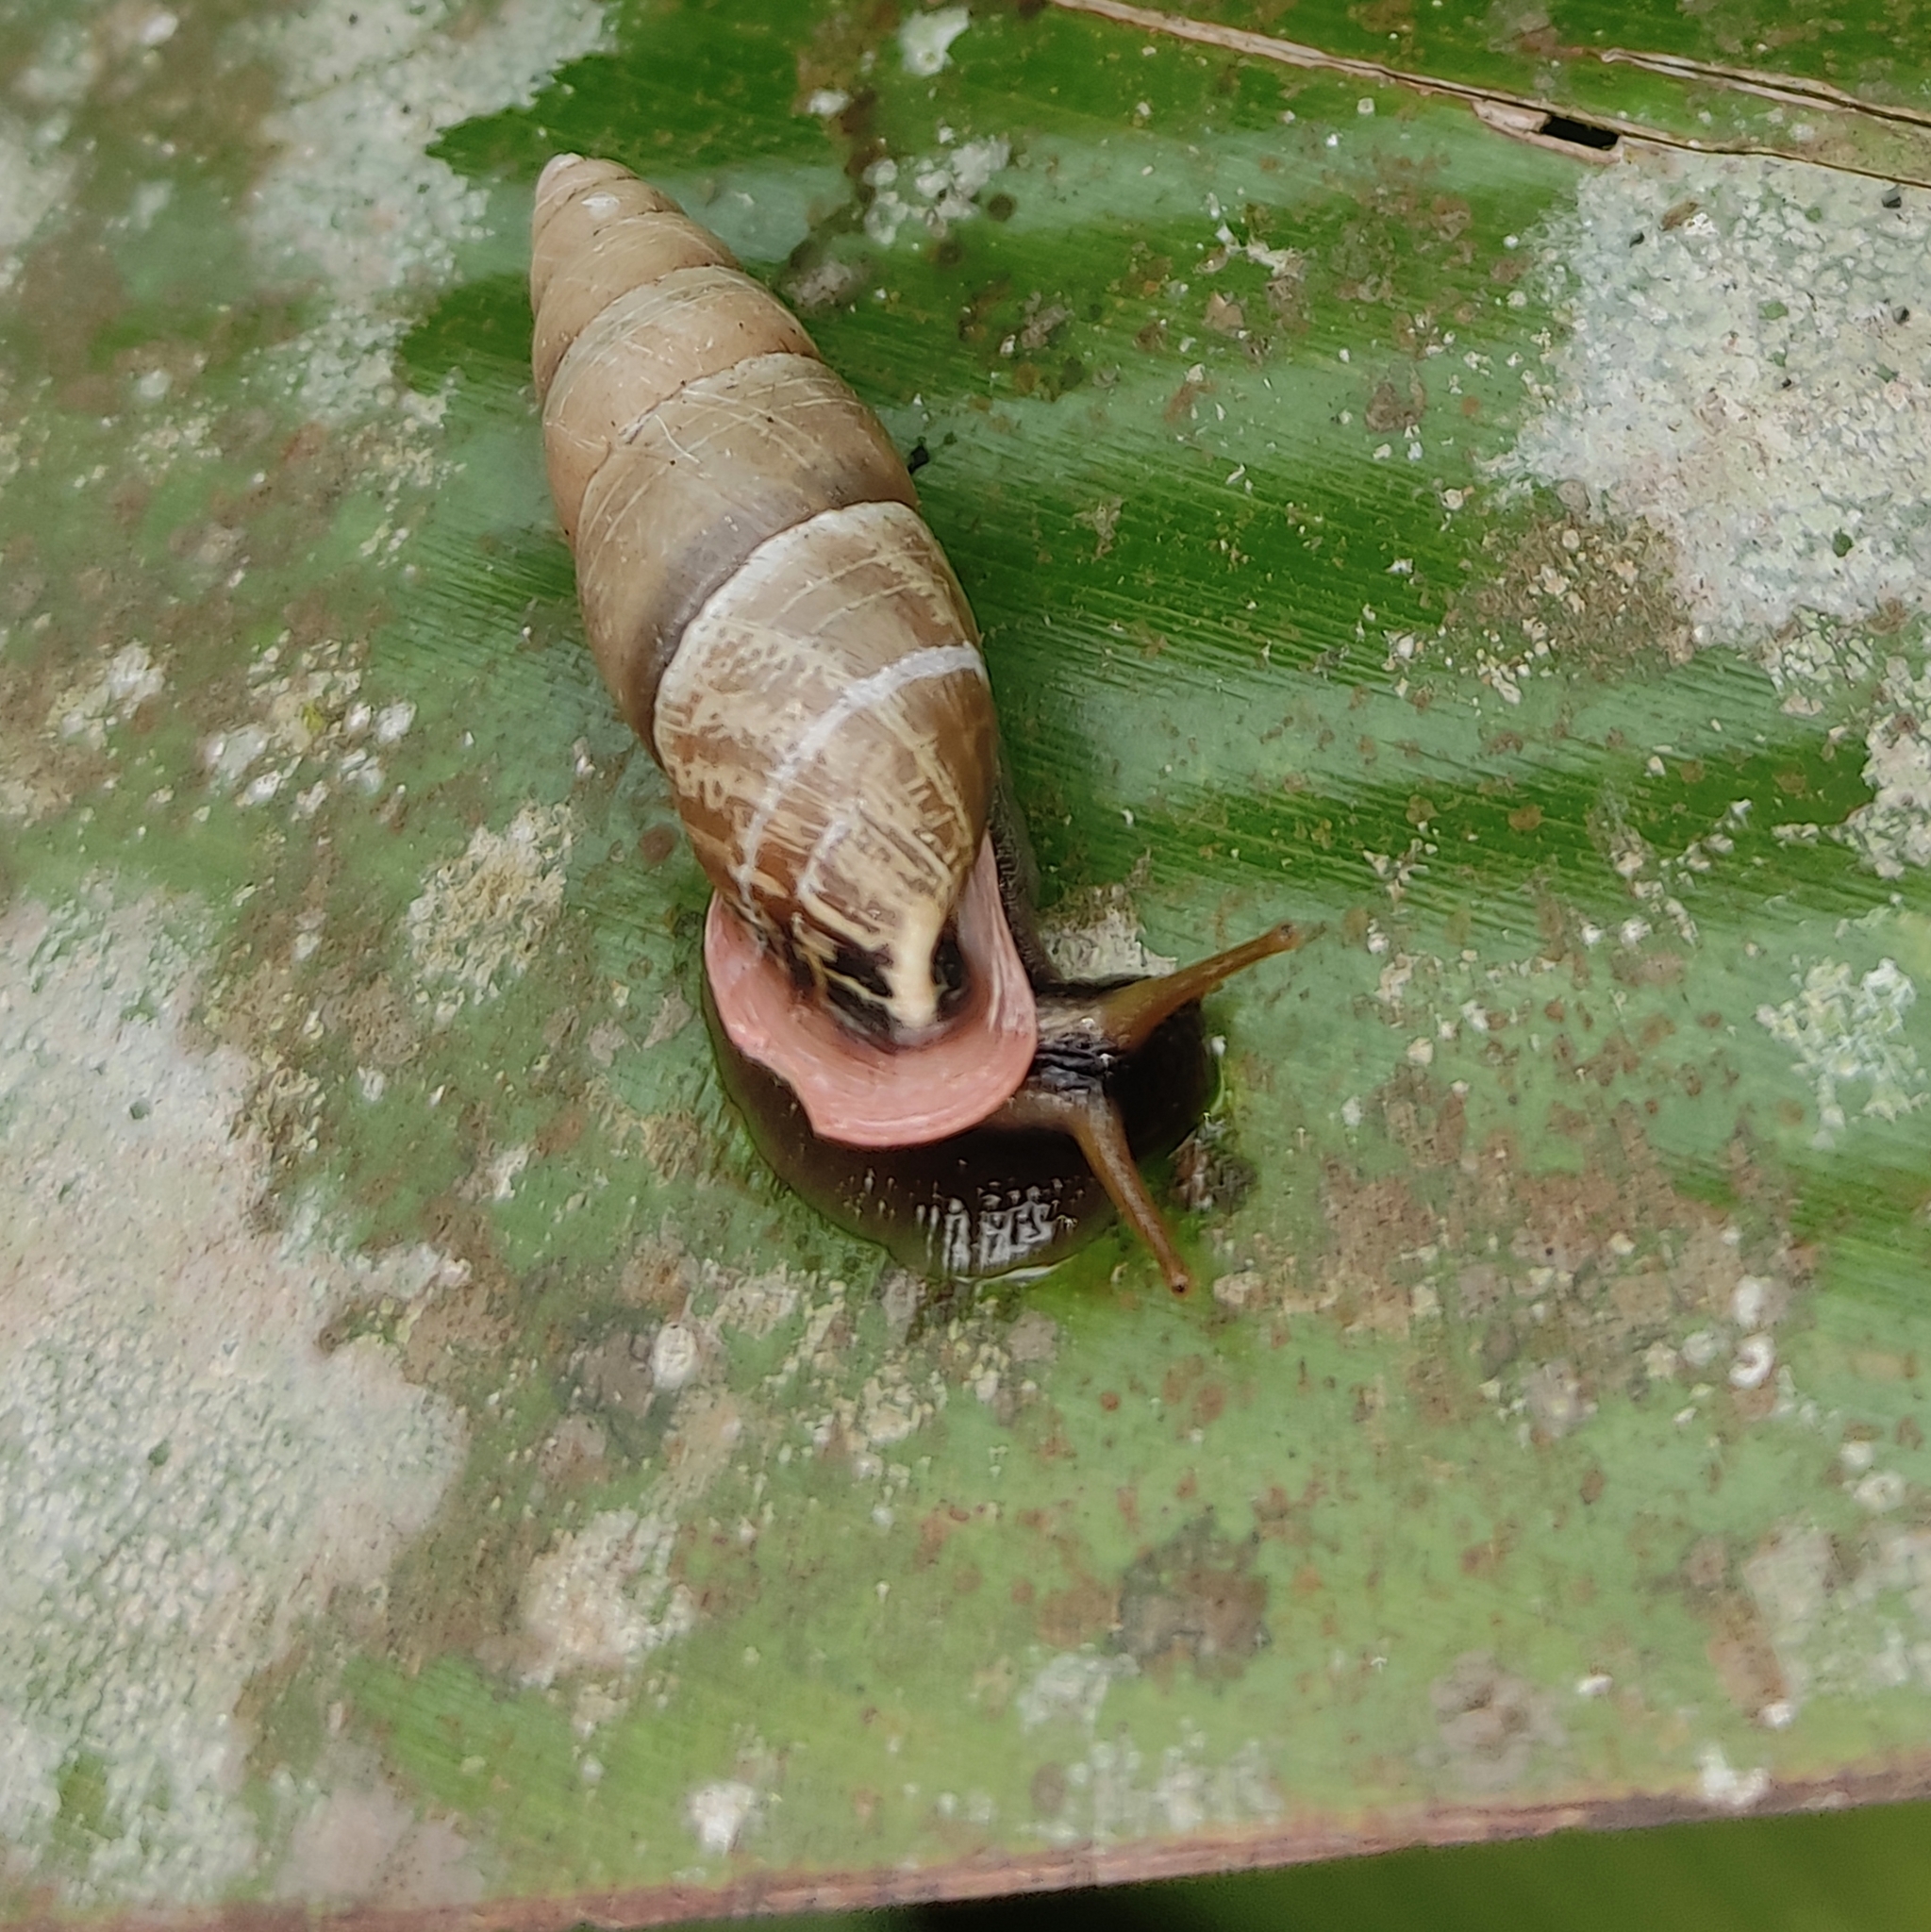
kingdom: Animalia
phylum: Mollusca
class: Gastropoda
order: Stylommatophora
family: Odontostomidae
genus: Bahiensis
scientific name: Bahiensis punctatissimus
